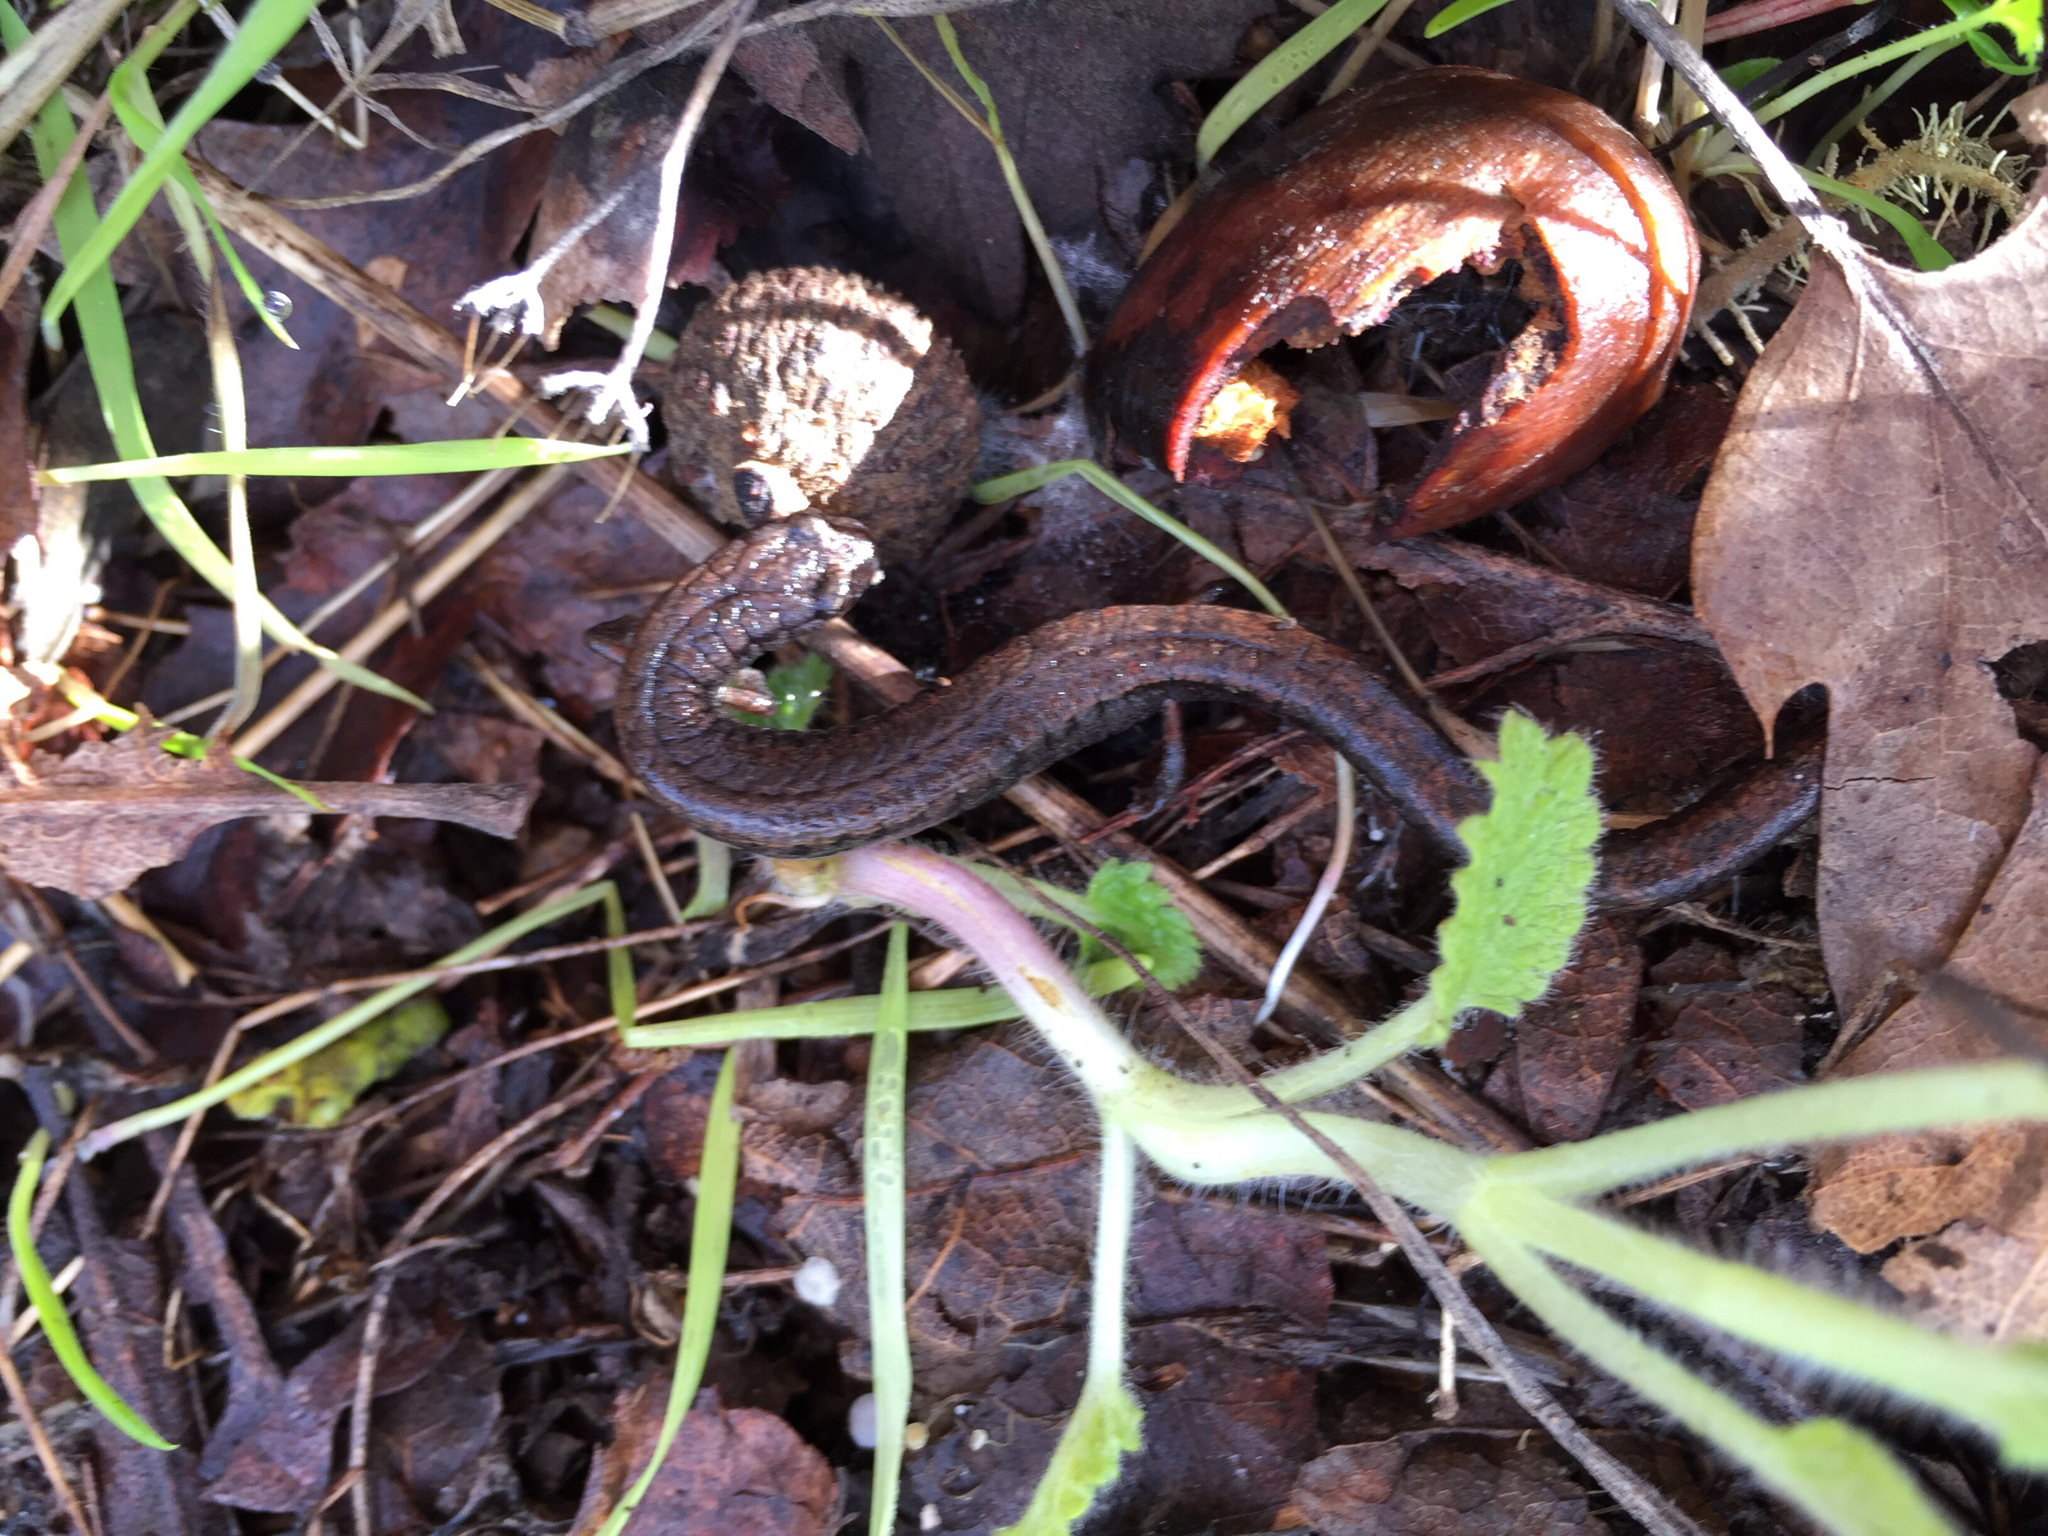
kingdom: Animalia
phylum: Chordata
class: Amphibia
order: Caudata
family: Plethodontidae
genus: Batrachoseps
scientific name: Batrachoseps attenuatus
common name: California slender salamander
